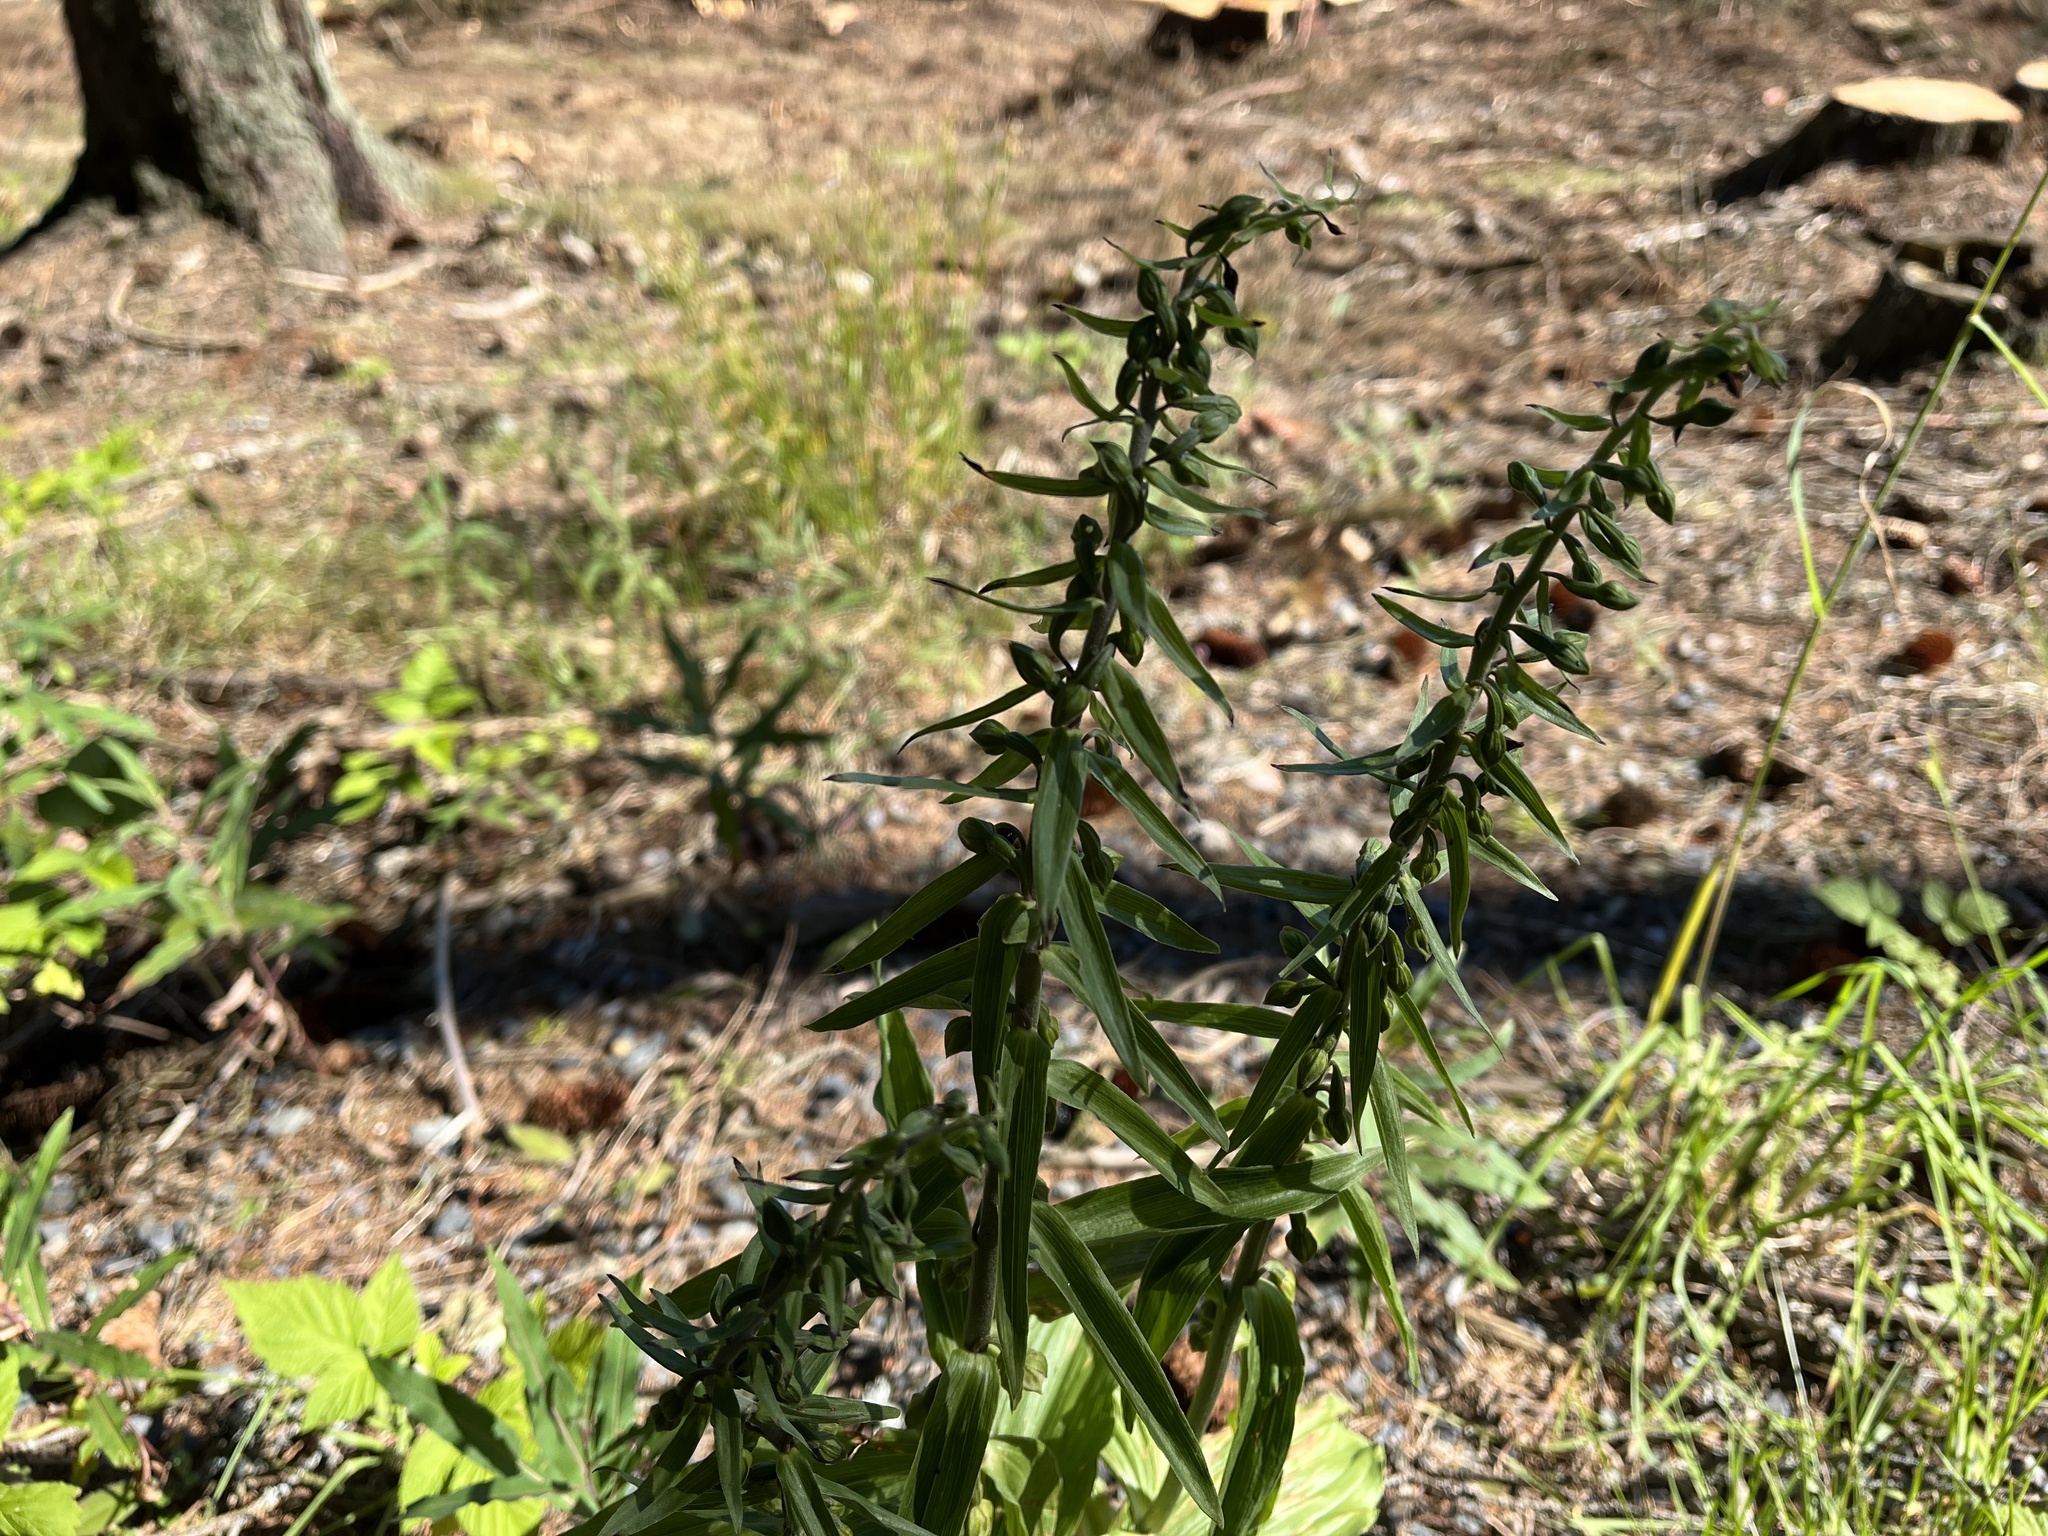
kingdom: Plantae
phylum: Tracheophyta
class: Liliopsida
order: Asparagales
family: Orchidaceae
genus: Epipactis
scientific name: Epipactis helleborine
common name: Broad-leaved helleborine
